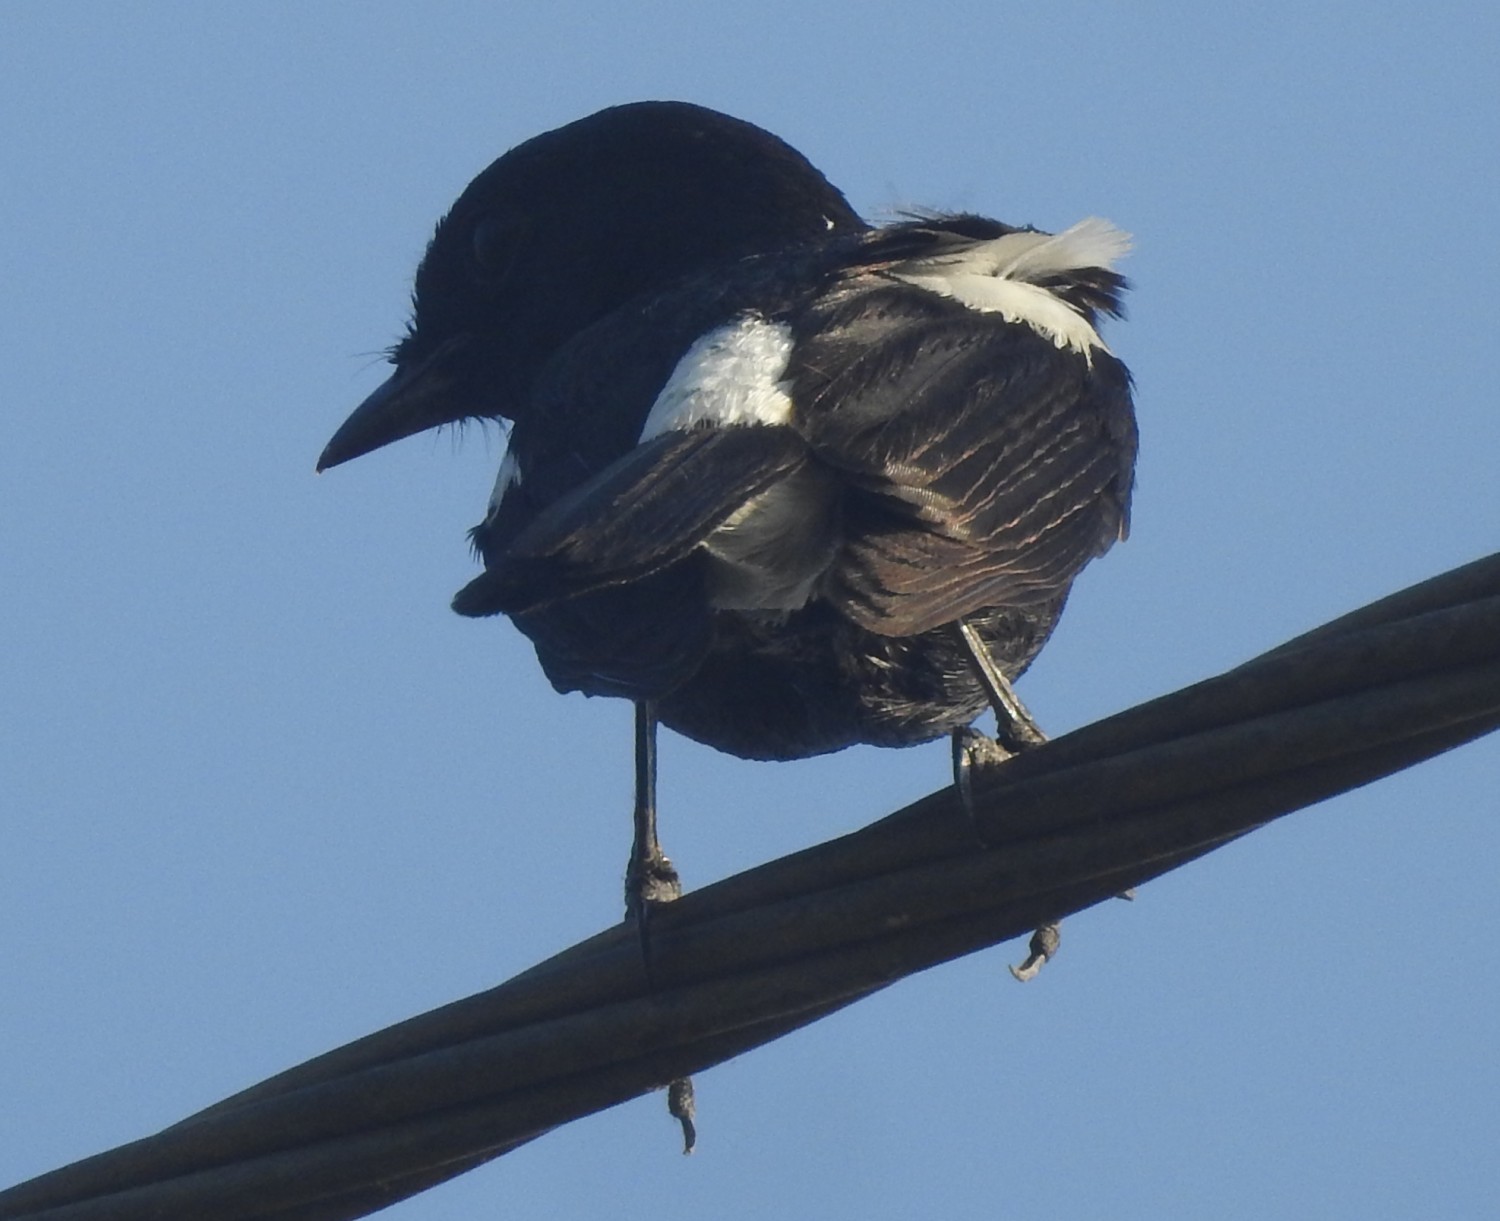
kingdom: Animalia
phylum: Chordata
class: Aves
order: Passeriformes
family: Muscicapidae
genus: Saxicola
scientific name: Saxicola caprata
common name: Pied bush chat
